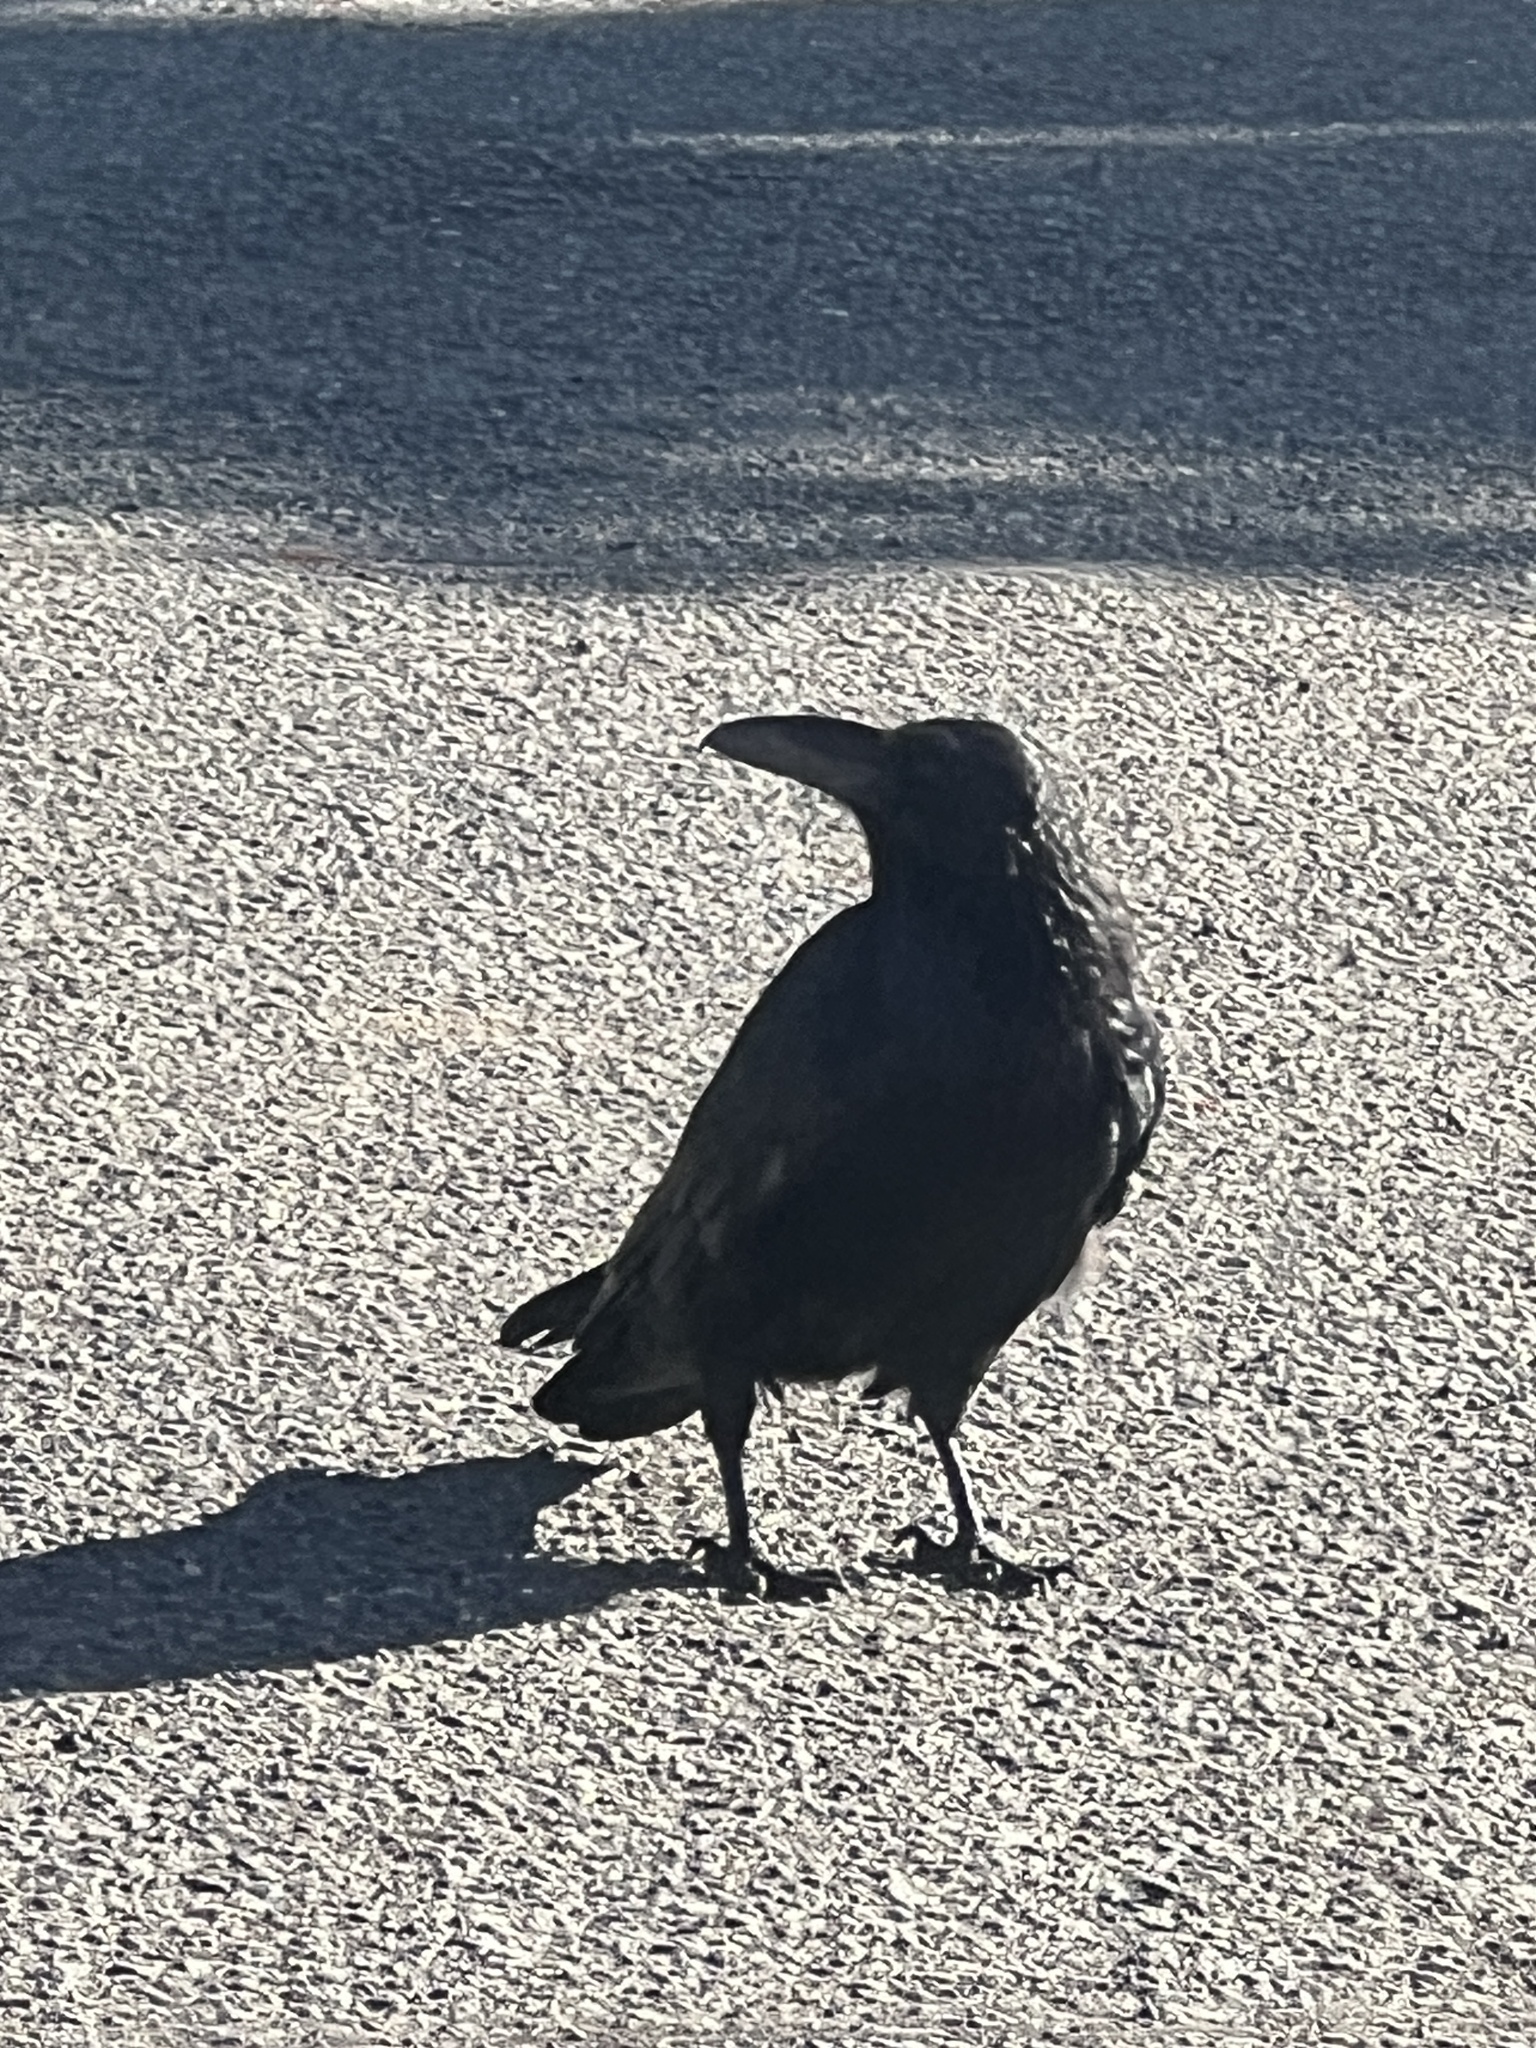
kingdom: Animalia
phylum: Chordata
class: Aves
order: Passeriformes
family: Corvidae
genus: Corvus
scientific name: Corvus corax
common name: Common raven
